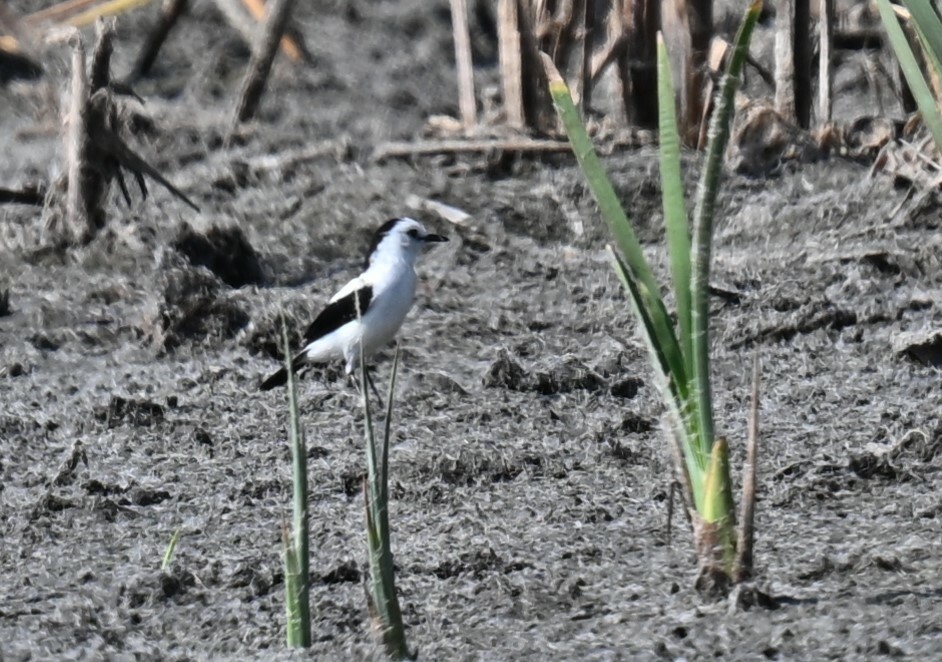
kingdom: Animalia
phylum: Chordata
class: Aves
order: Passeriformes
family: Tyrannidae
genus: Fluvicola
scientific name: Fluvicola pica
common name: Pied water-tyrant
